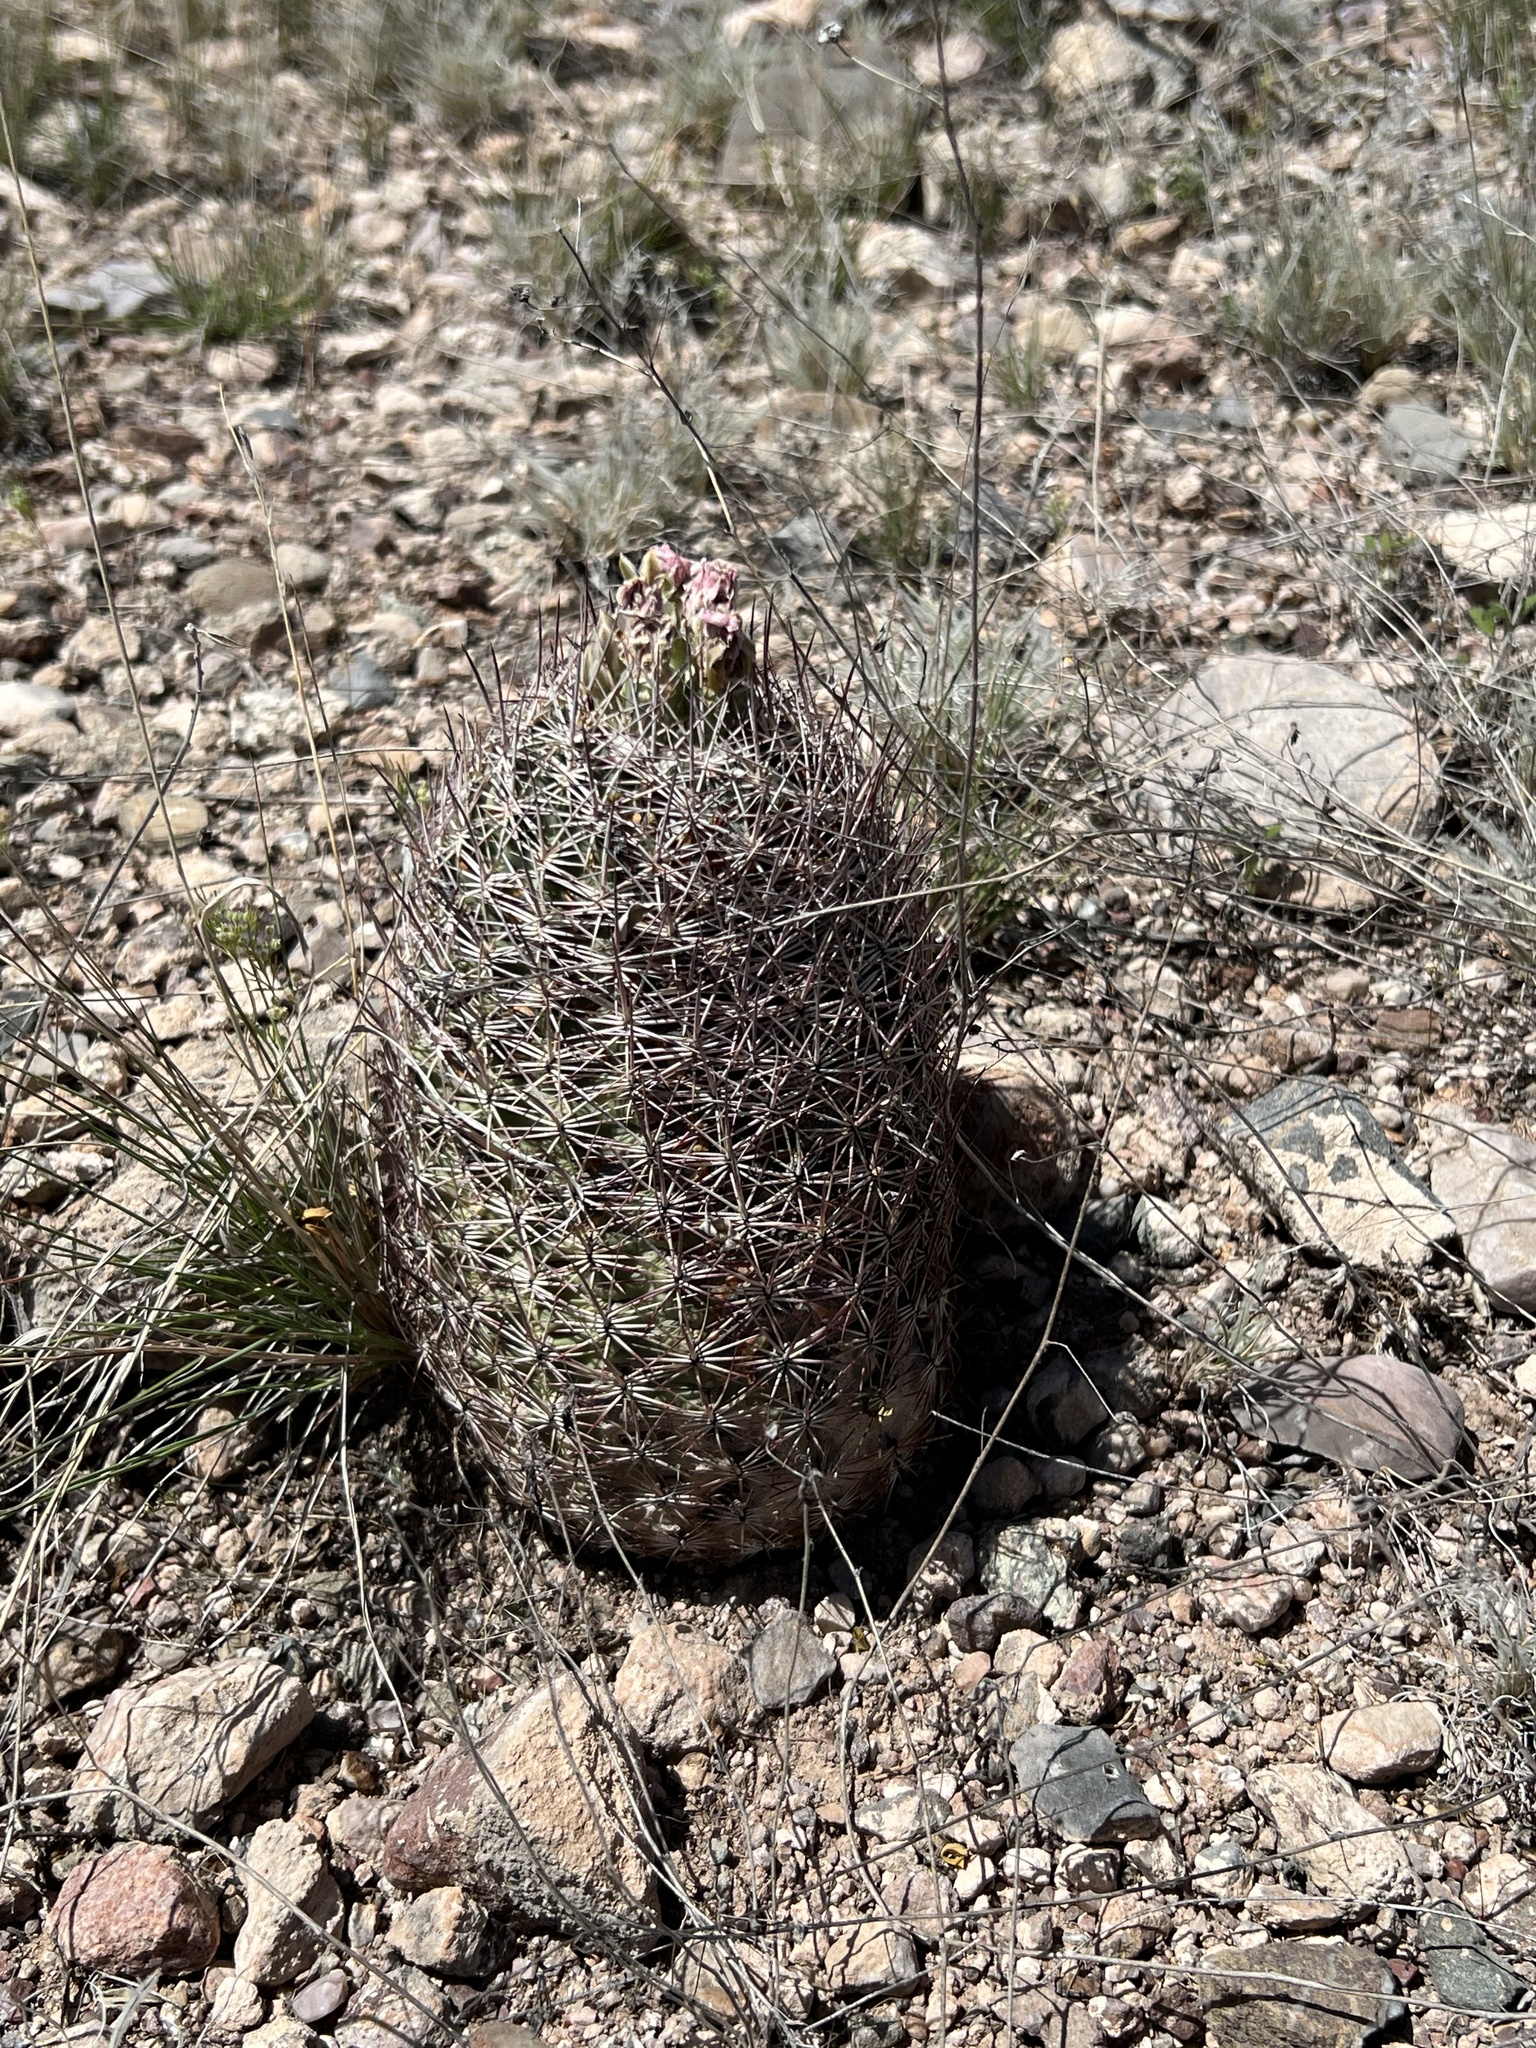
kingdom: Plantae
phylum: Tracheophyta
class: Magnoliopsida
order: Caryophyllales
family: Cactaceae
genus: Sclerocactus
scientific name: Sclerocactus johnsonii
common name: Eight-spine fishhook cactus
